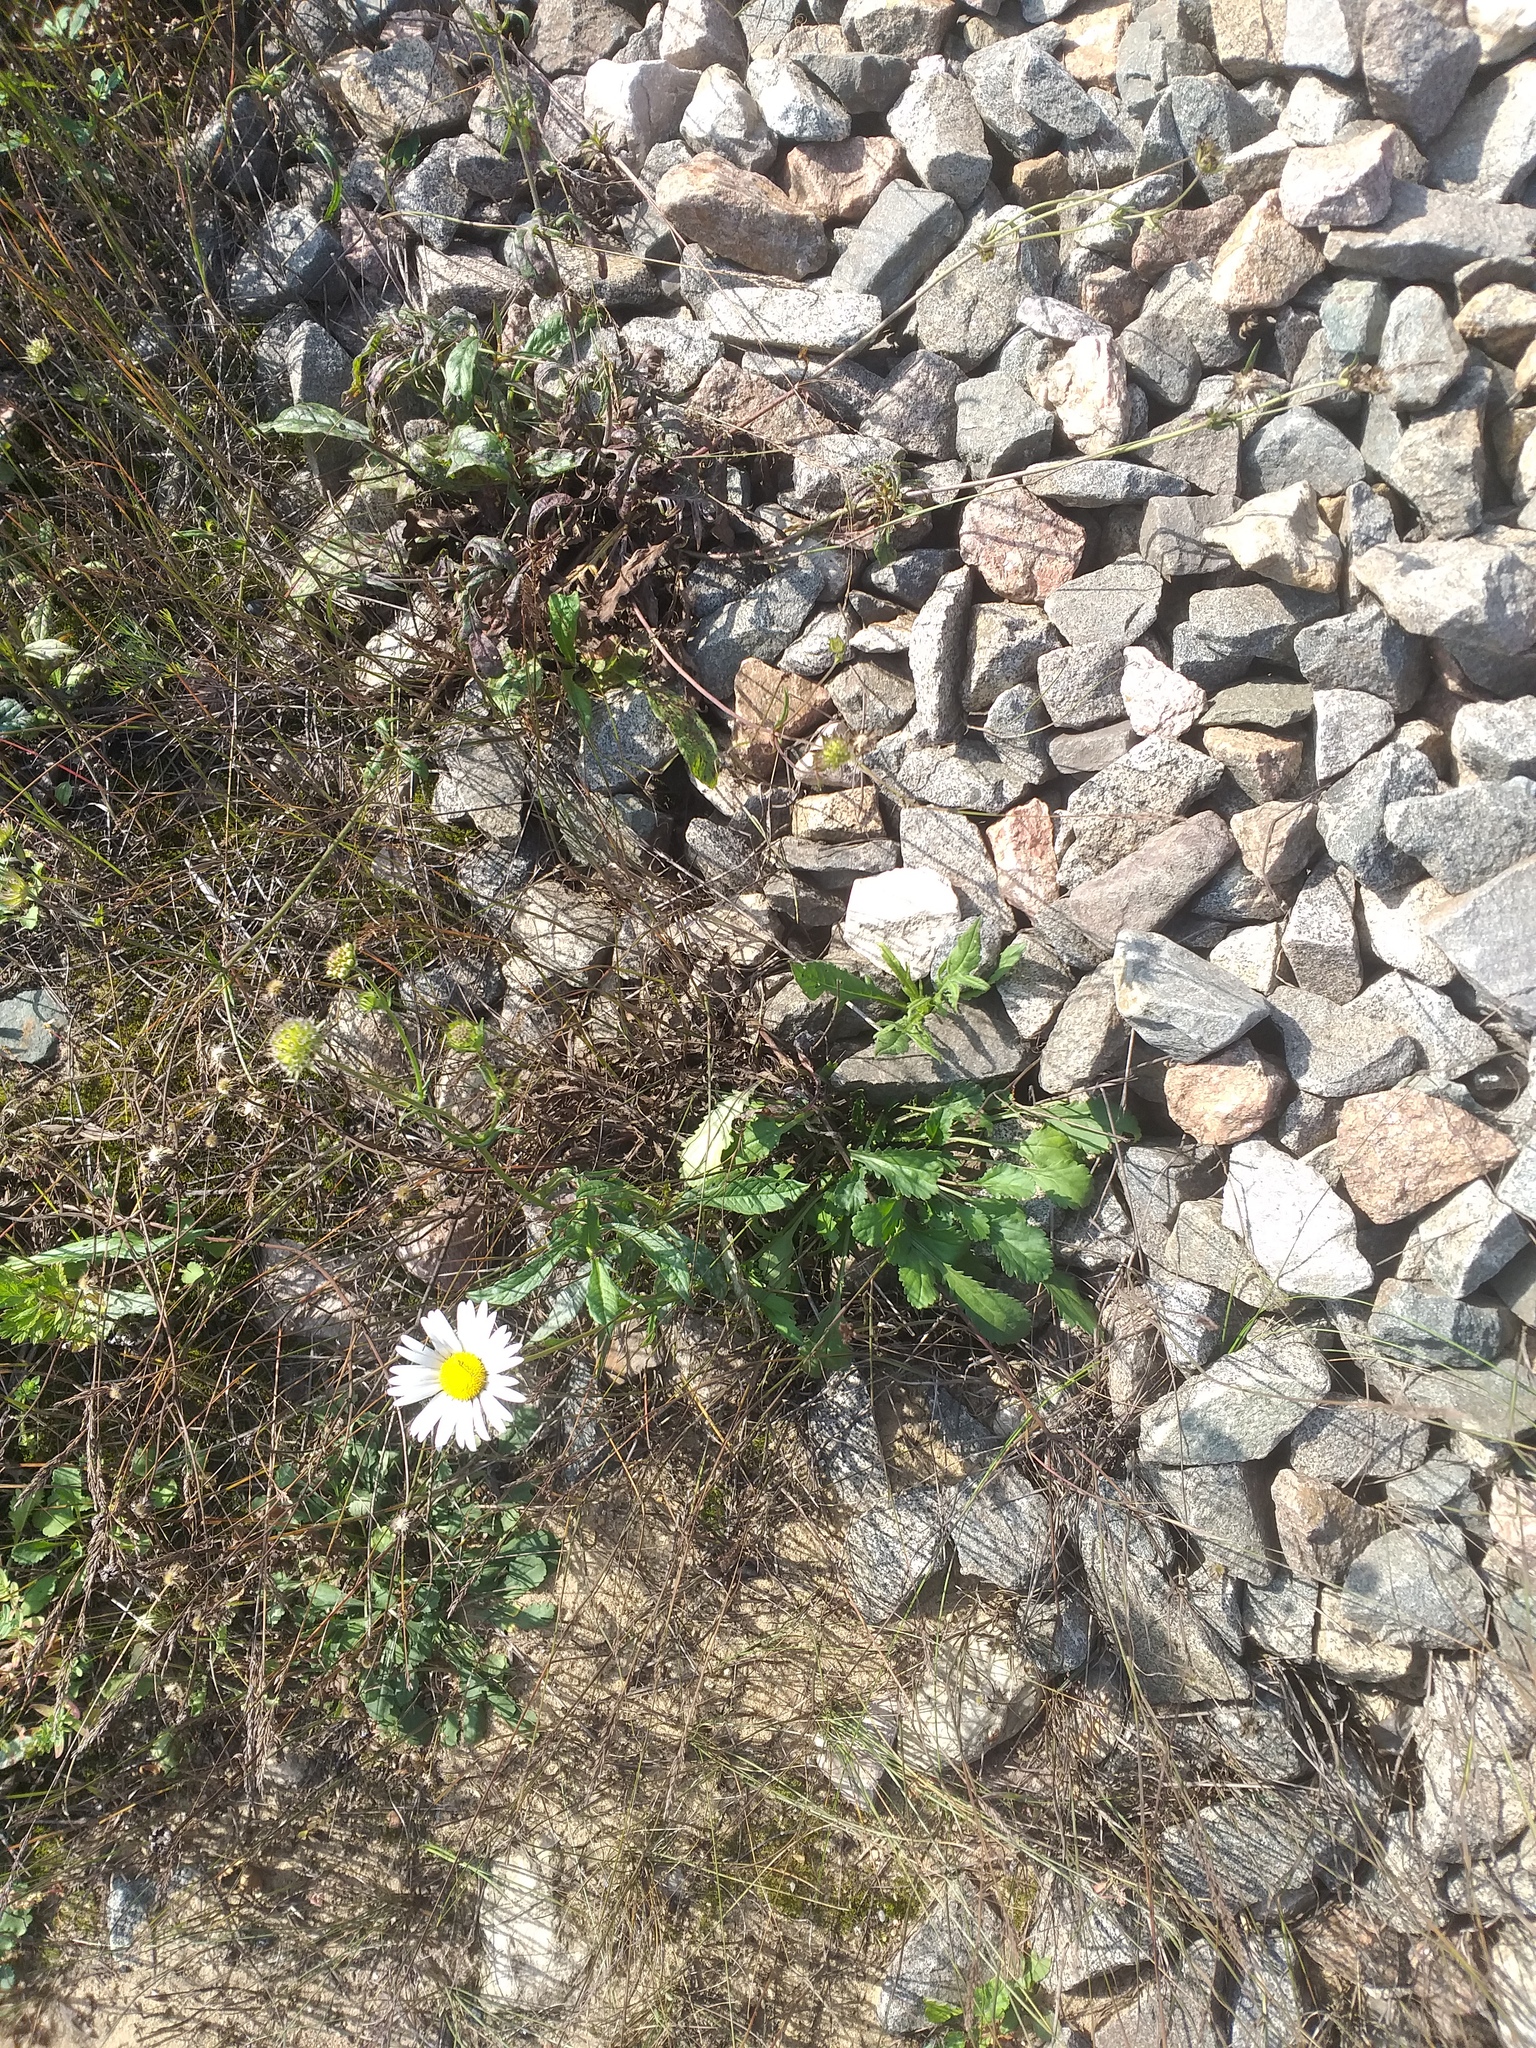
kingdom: Plantae
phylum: Tracheophyta
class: Magnoliopsida
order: Asterales
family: Asteraceae
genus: Leucanthemum
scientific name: Leucanthemum vulgare
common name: Oxeye daisy
